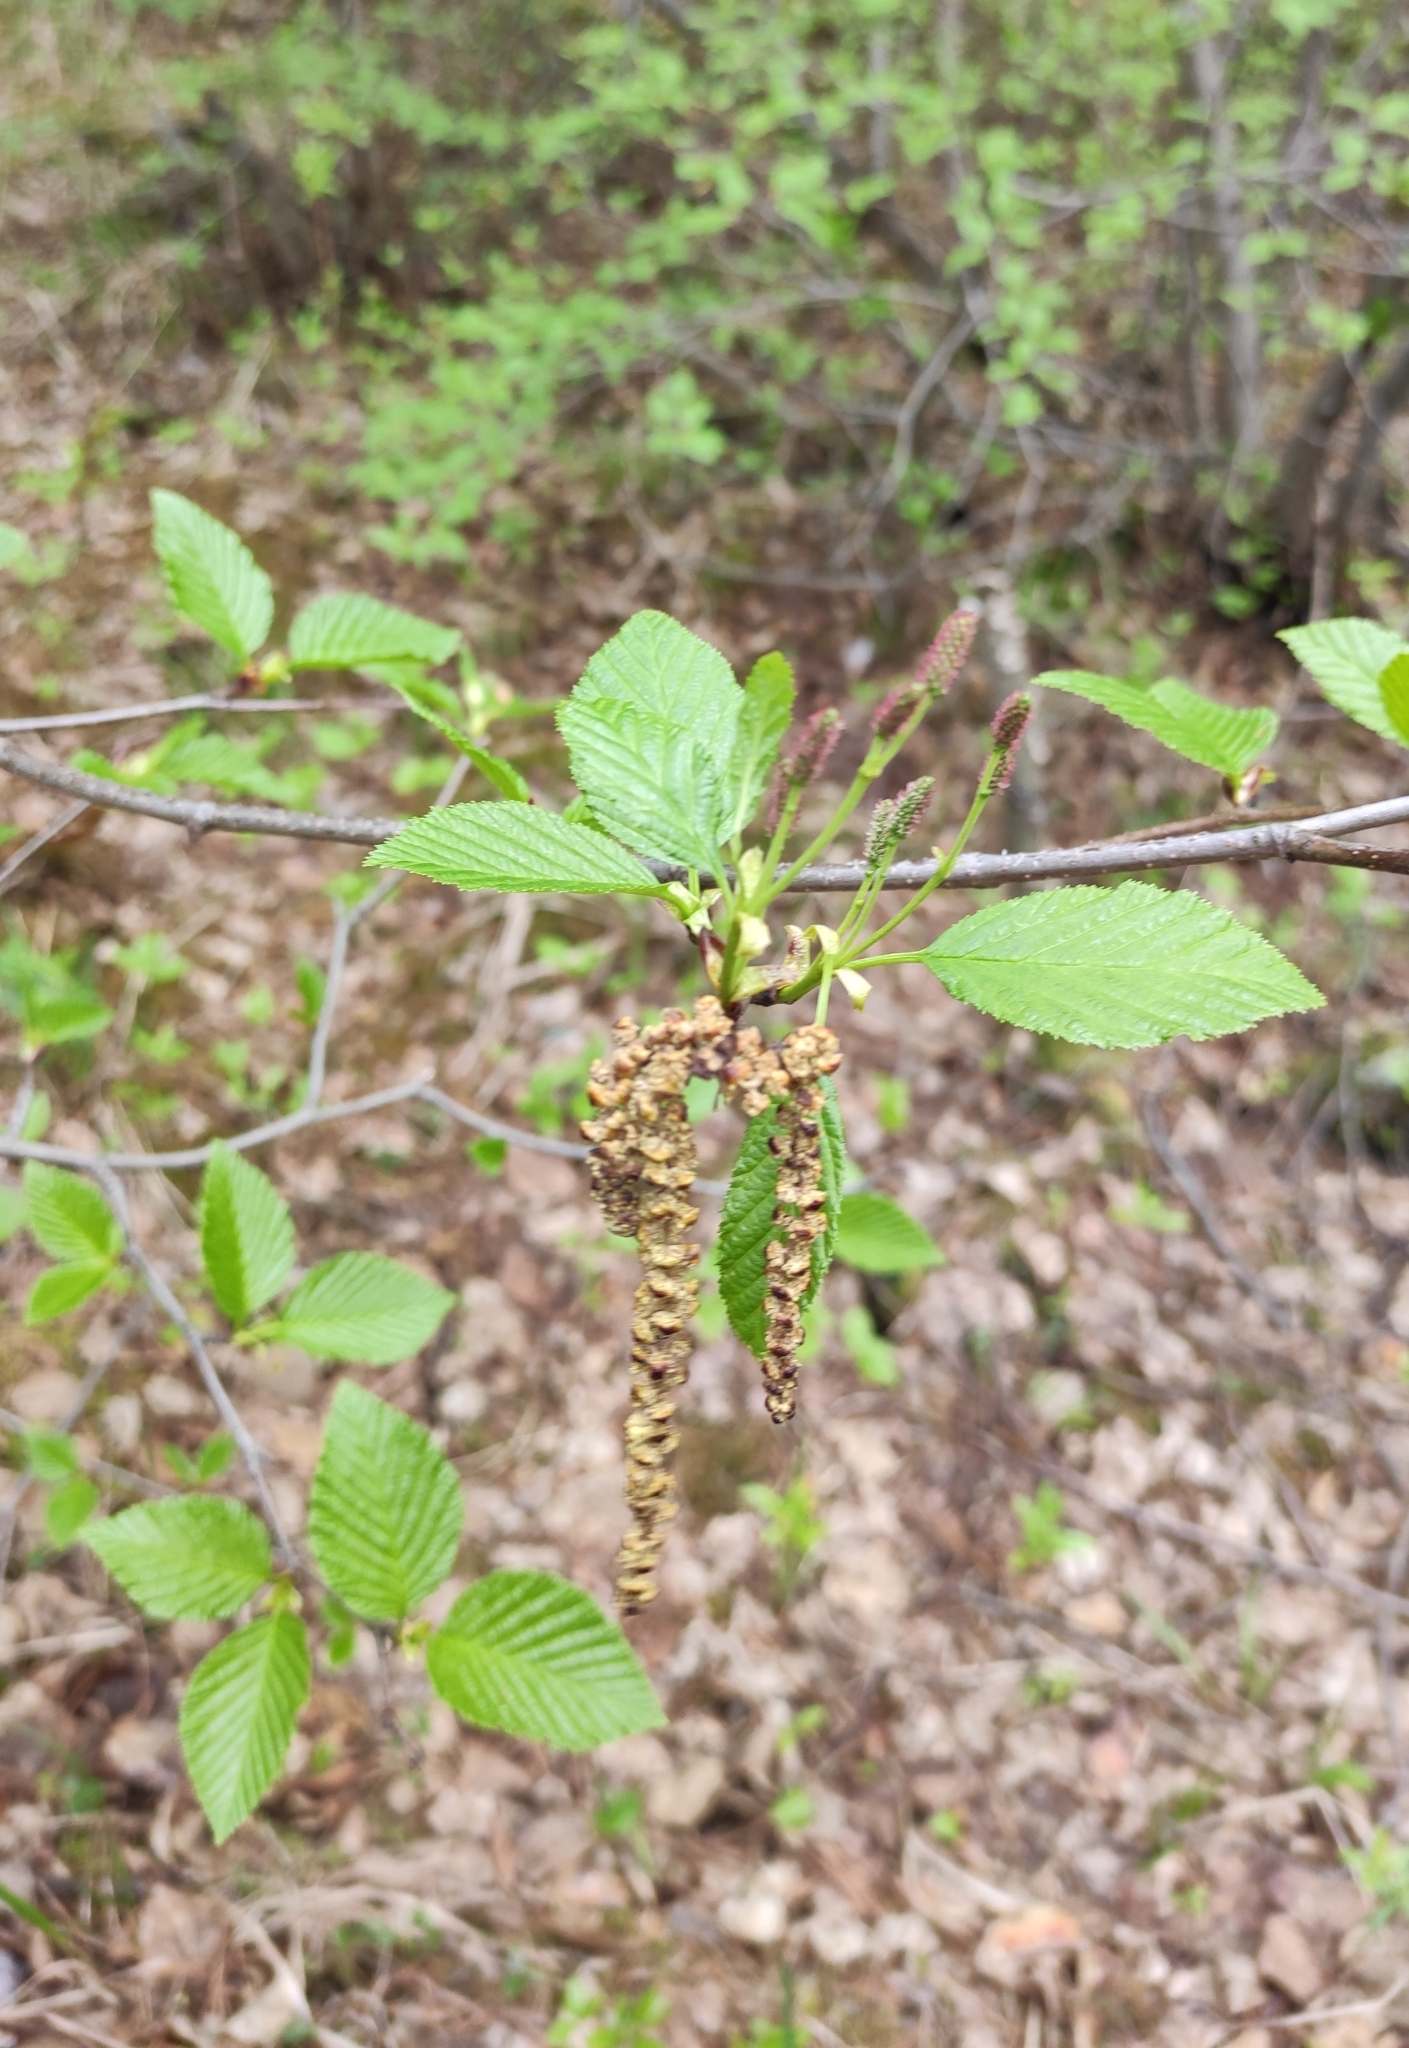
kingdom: Plantae
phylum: Tracheophyta
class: Magnoliopsida
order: Fagales
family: Betulaceae
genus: Alnus
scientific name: Alnus alnobetula
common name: Green alder
